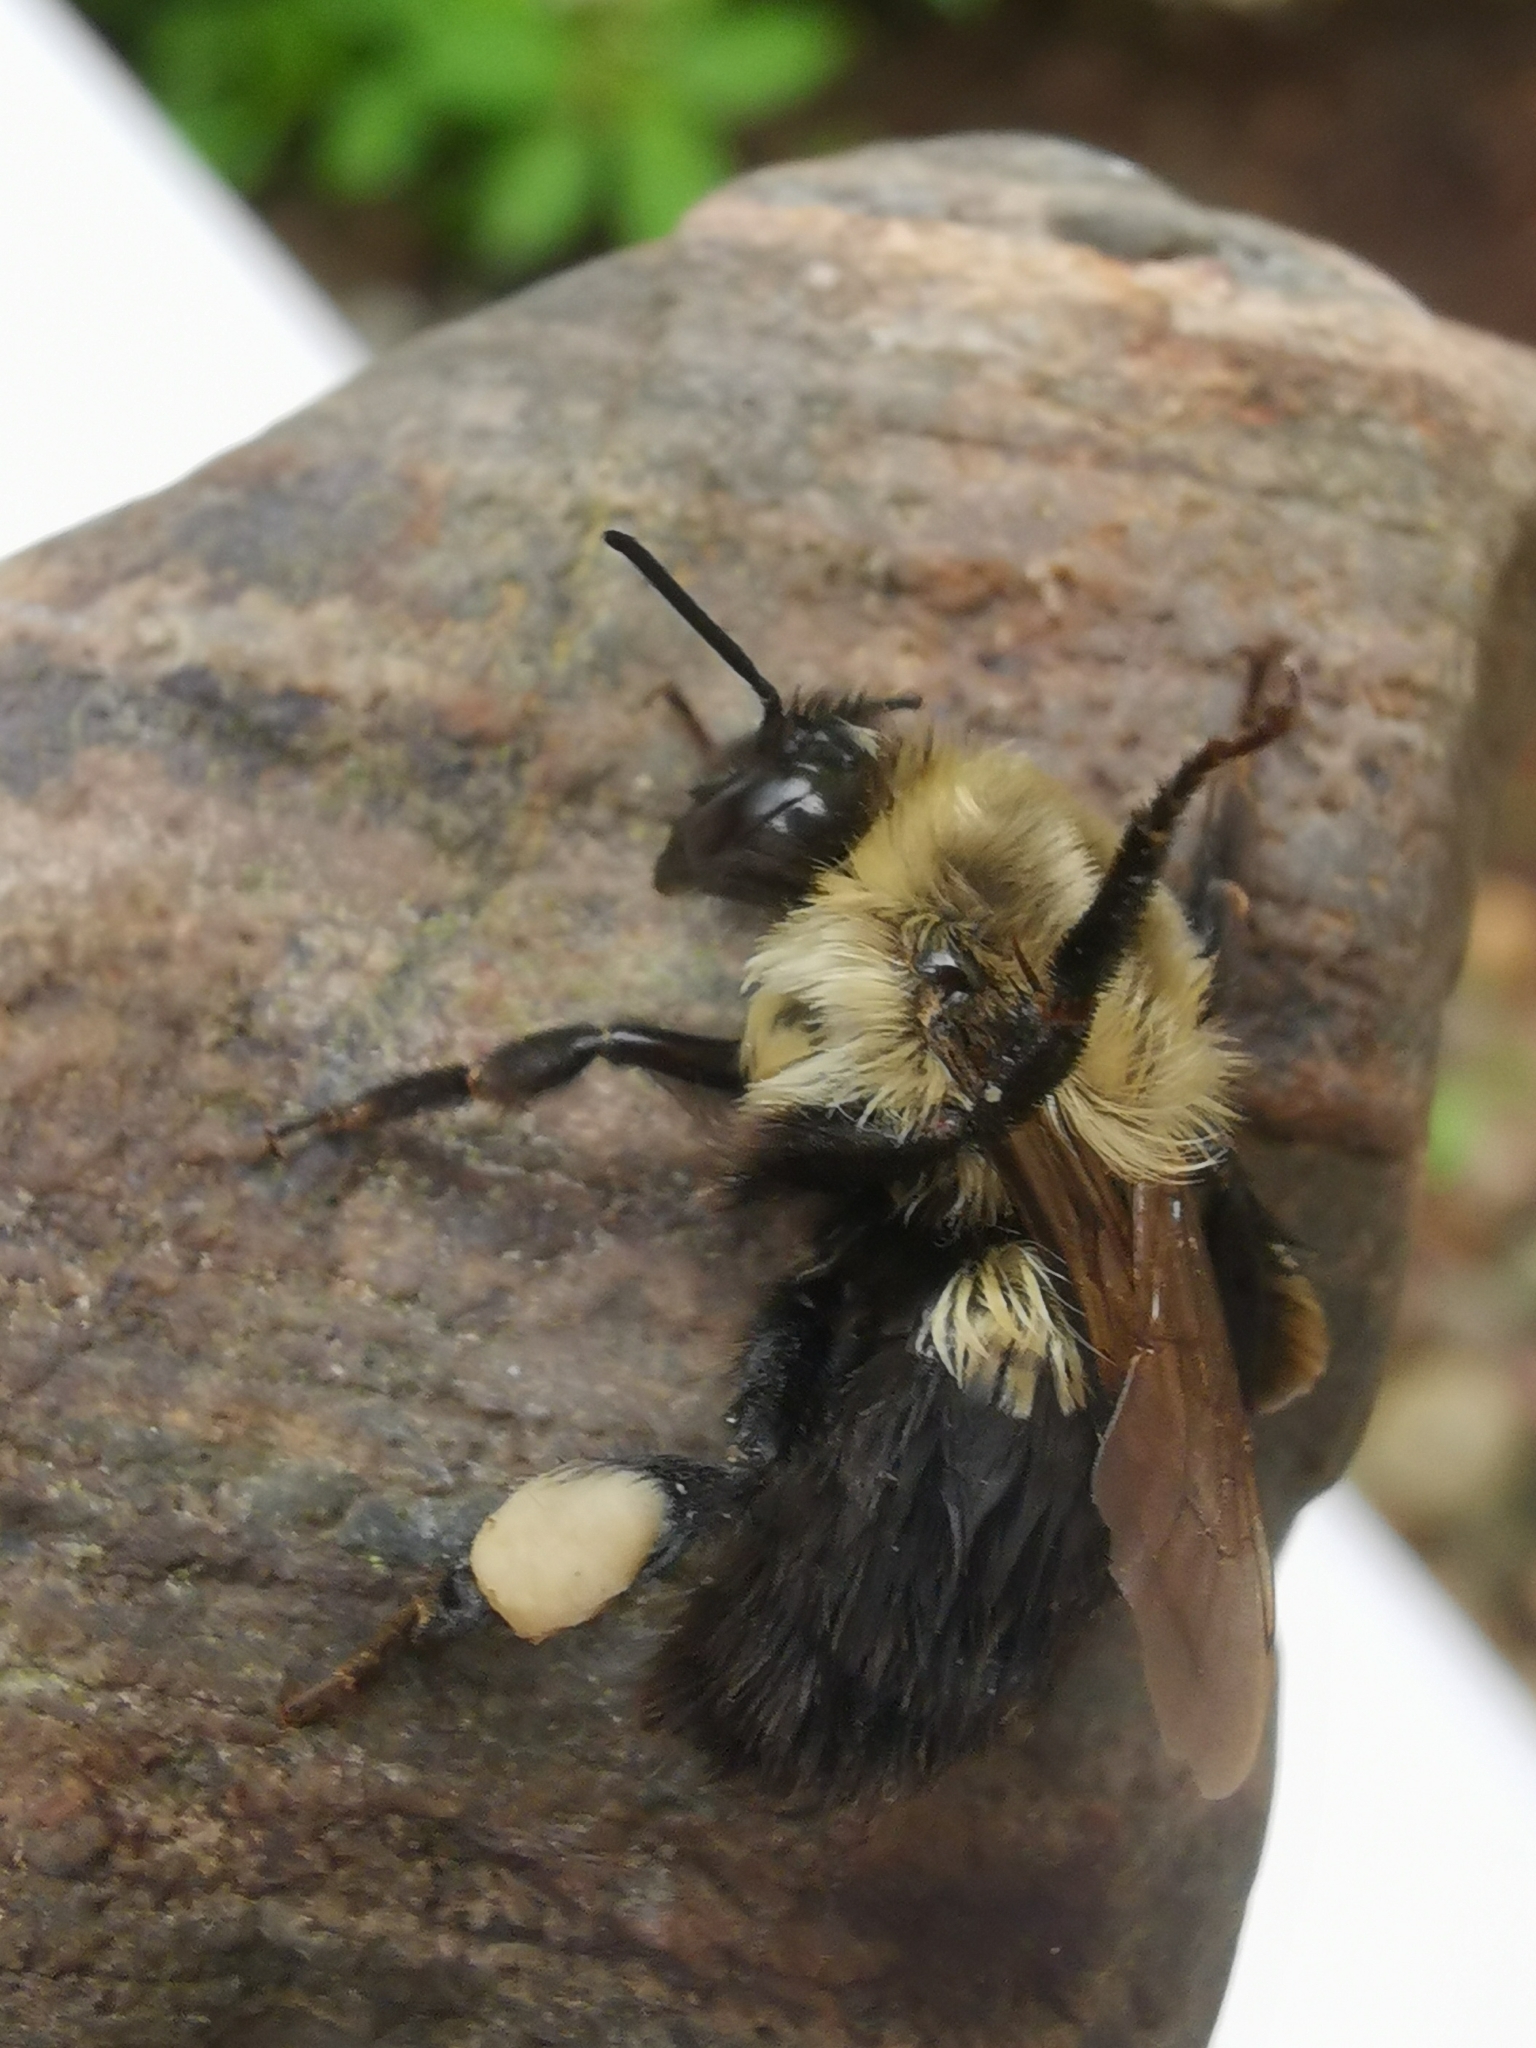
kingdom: Animalia
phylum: Arthropoda
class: Insecta
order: Hymenoptera
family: Apidae
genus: Bombus
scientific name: Bombus impatiens
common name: Common eastern bumble bee
